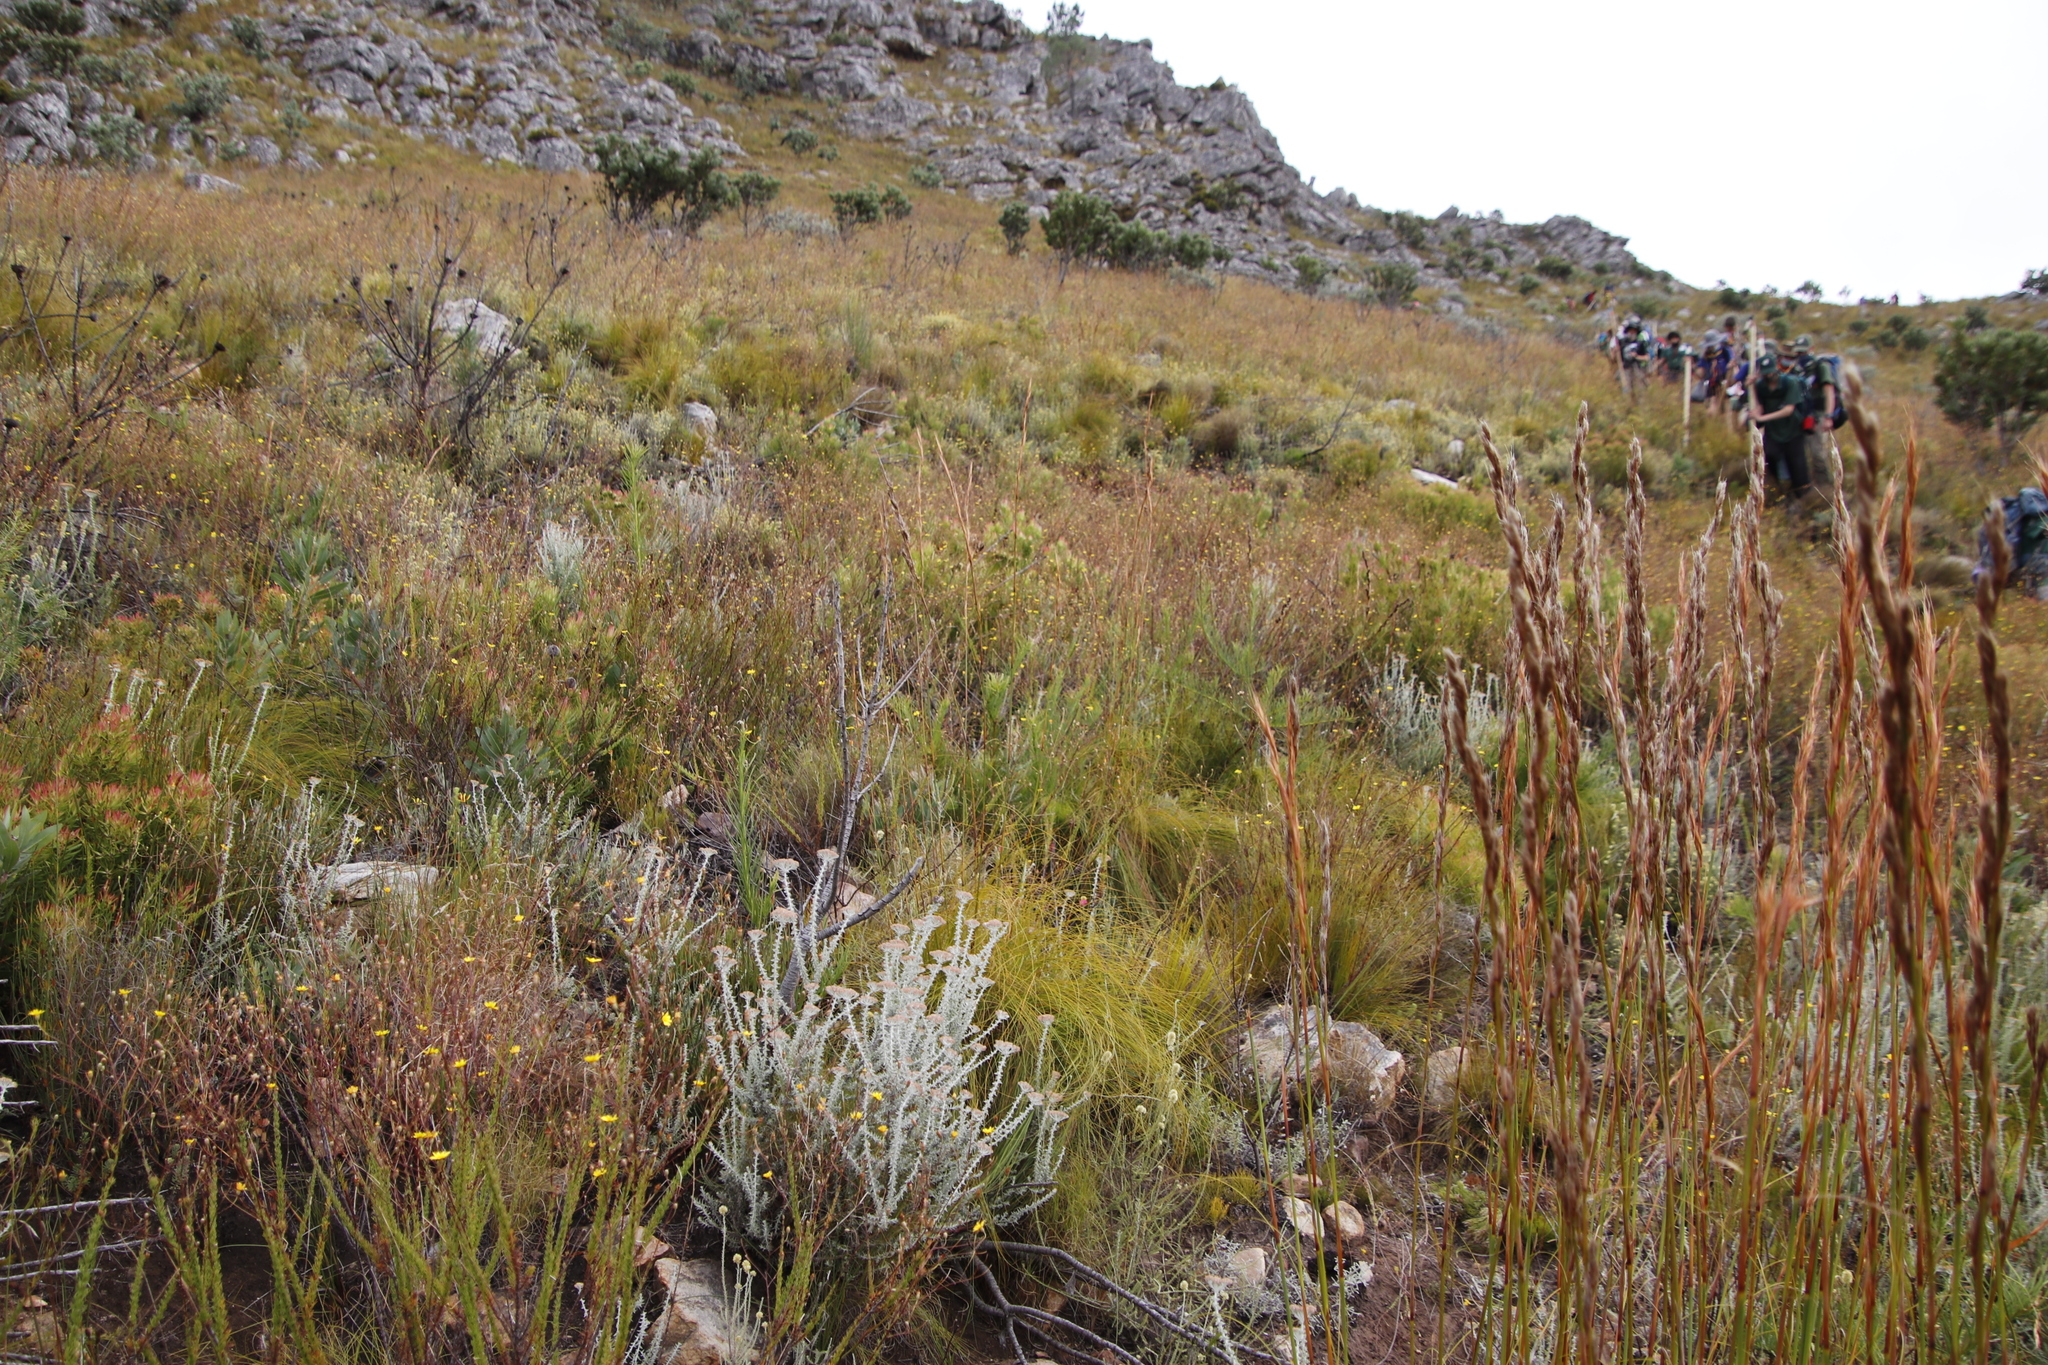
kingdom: Plantae
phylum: Tracheophyta
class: Magnoliopsida
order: Proteales
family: Proteaceae
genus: Leucospermum
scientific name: Leucospermum lineare
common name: Needle-leaf pincushion
